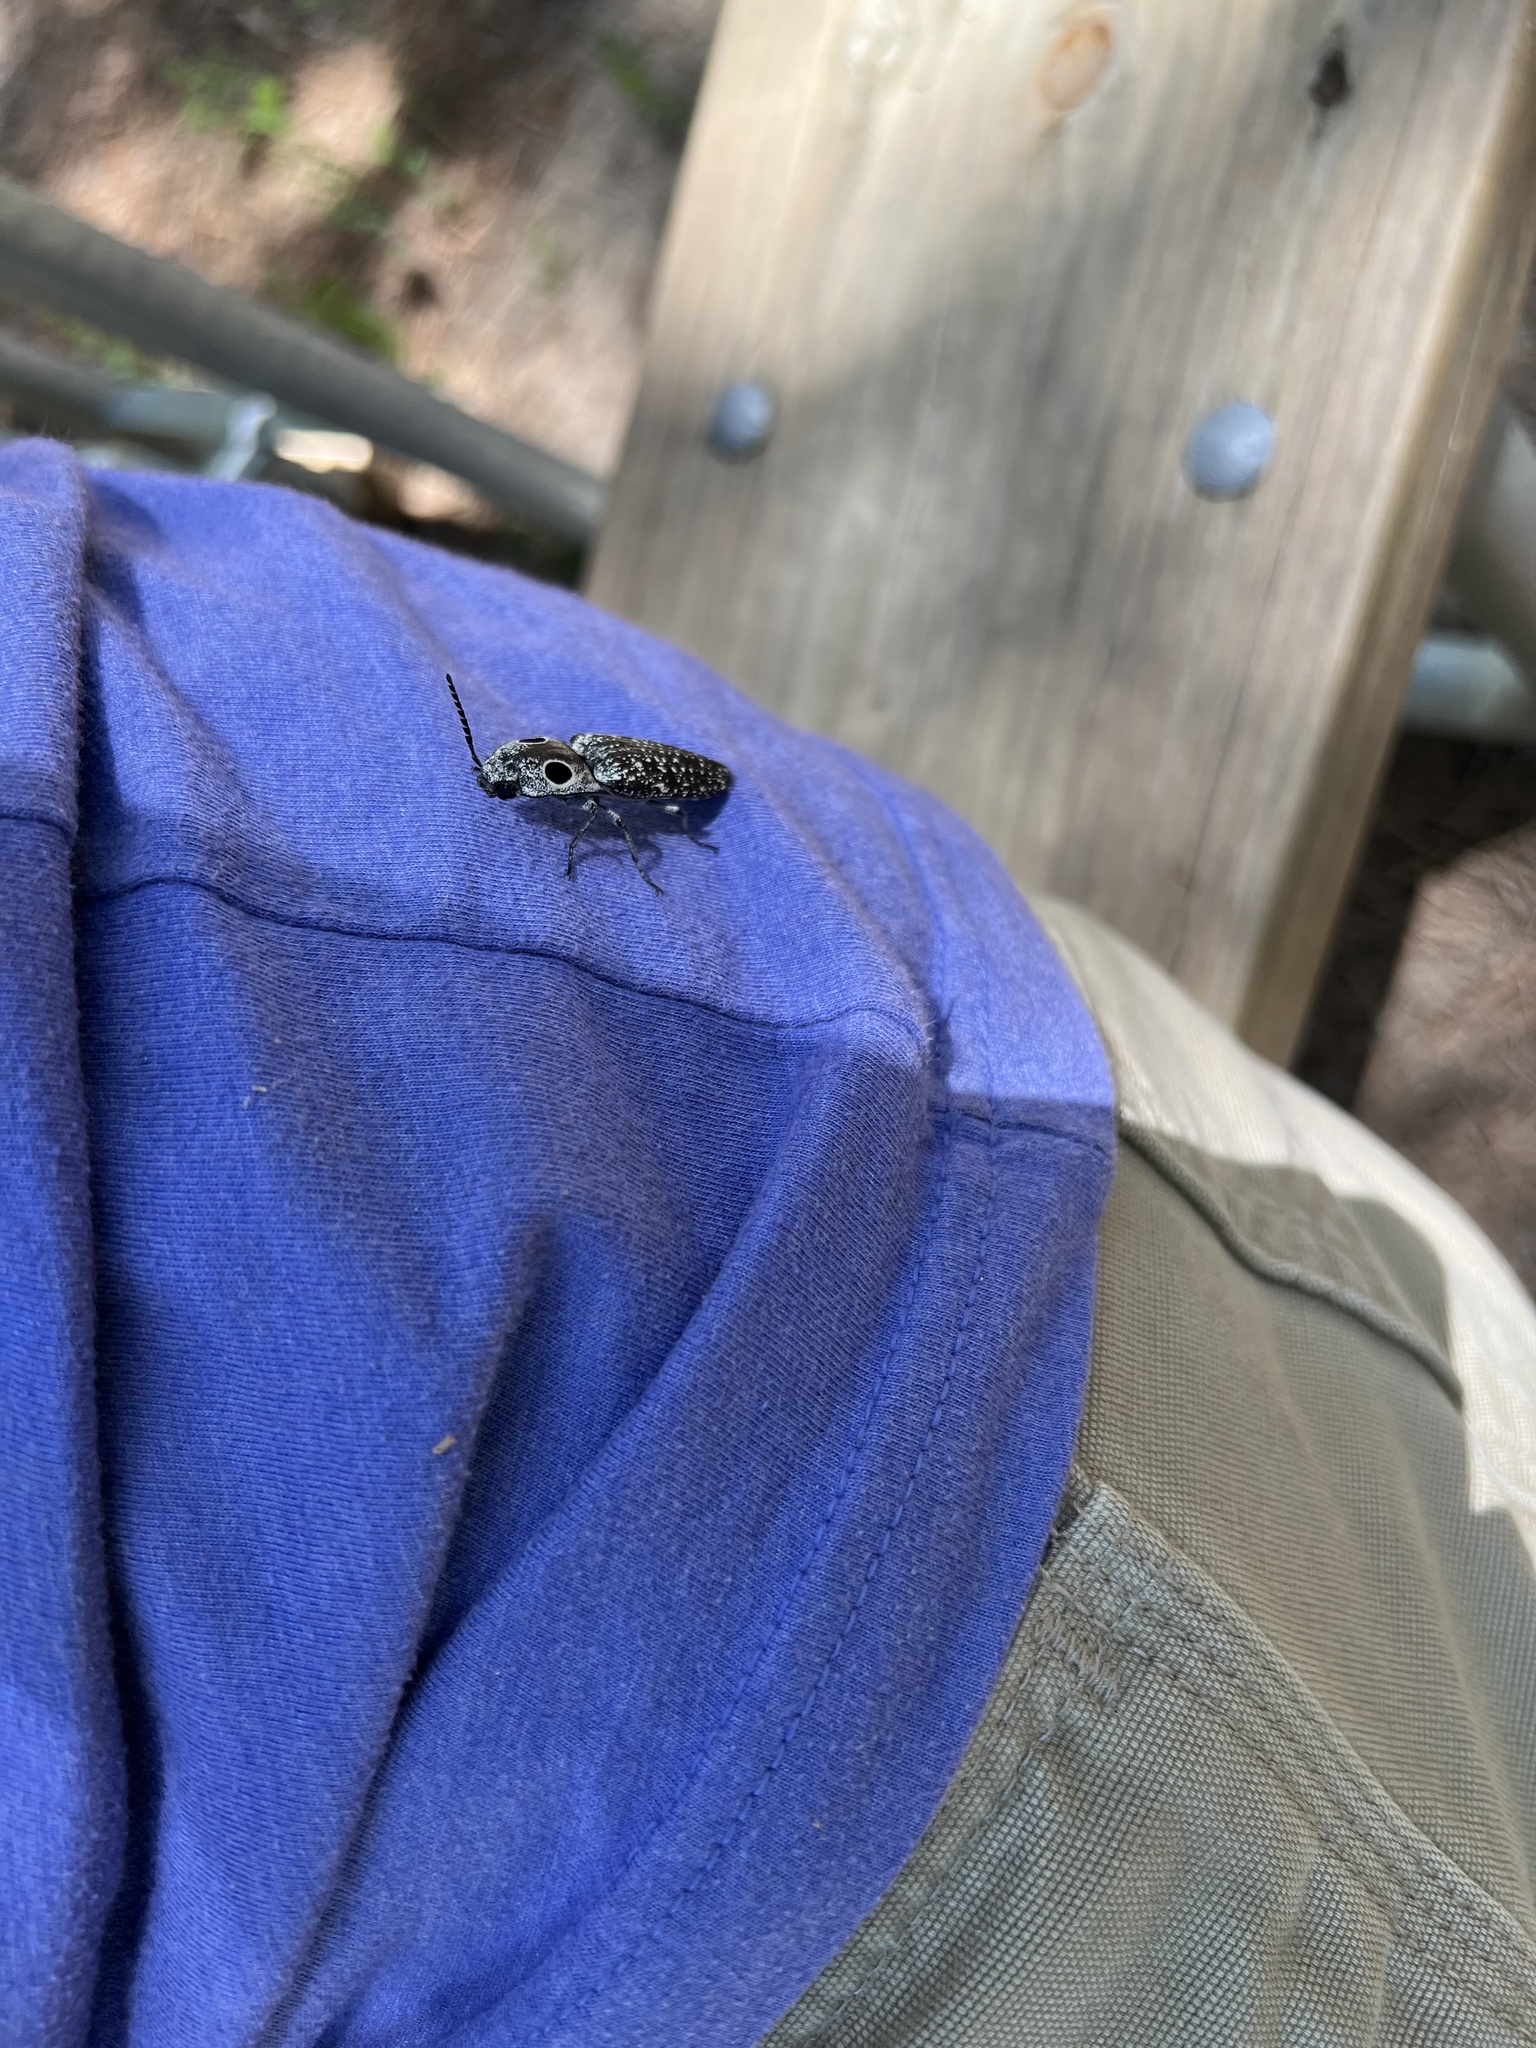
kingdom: Animalia
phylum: Arthropoda
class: Insecta
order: Coleoptera
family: Elateridae
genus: Alaus
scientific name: Alaus oculatus
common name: Eastern eyed click beetle
